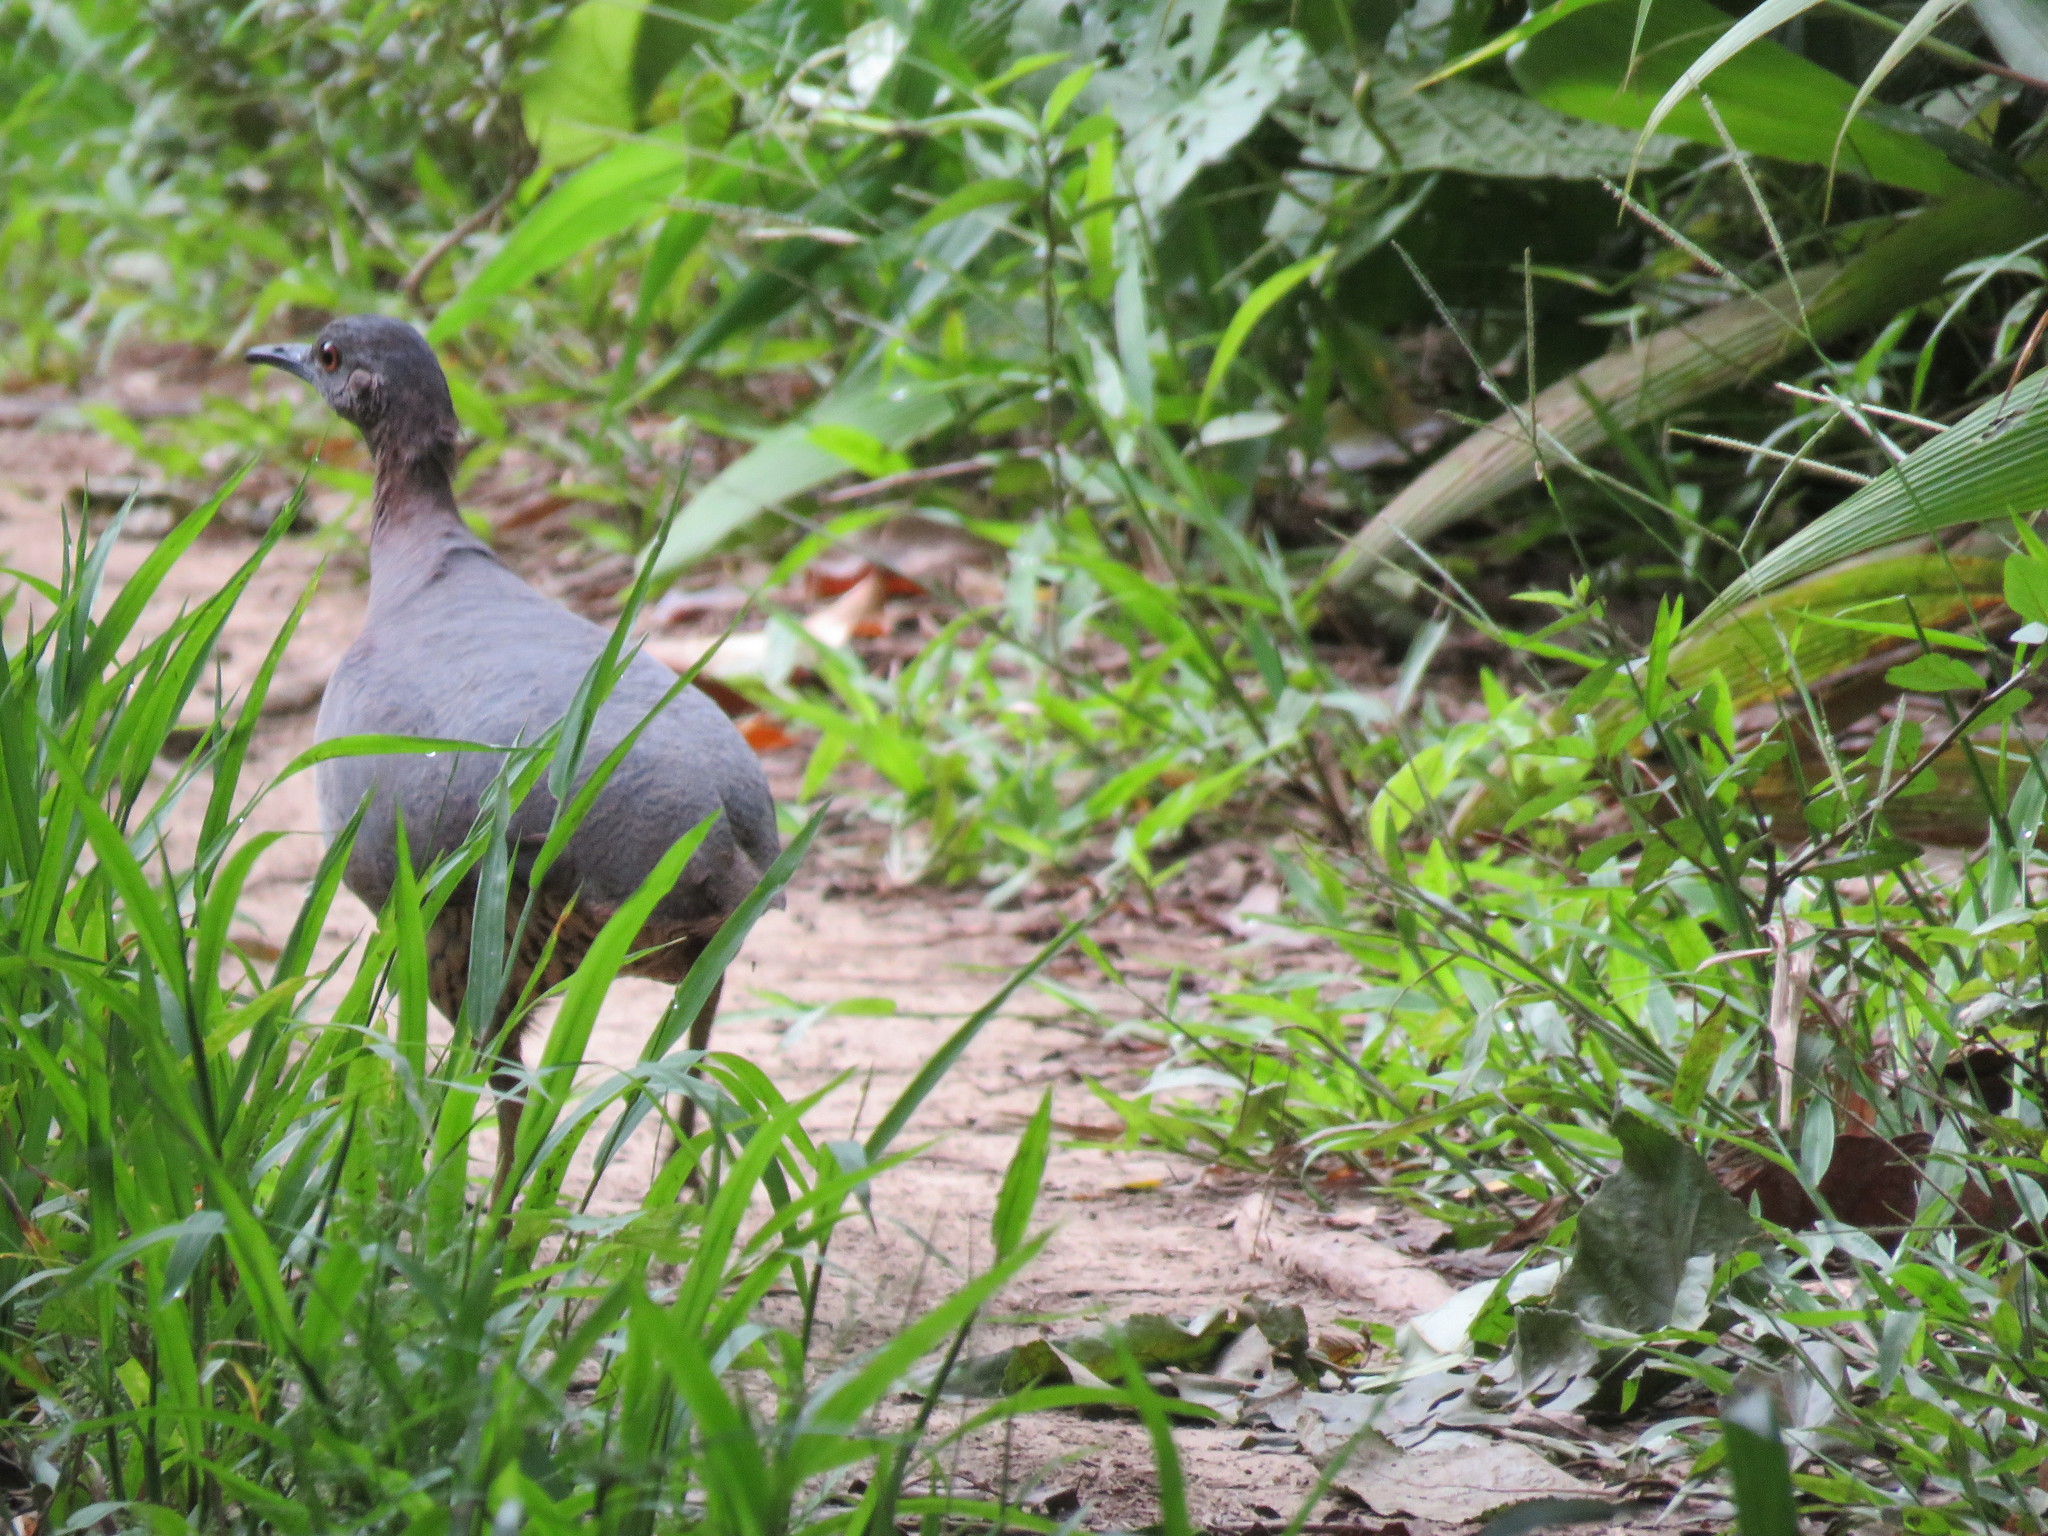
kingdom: Animalia
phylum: Chordata
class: Aves
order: Tinamiformes
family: Tinamidae
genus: Crypturellus
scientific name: Crypturellus undulatus
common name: Undulated tinamou
